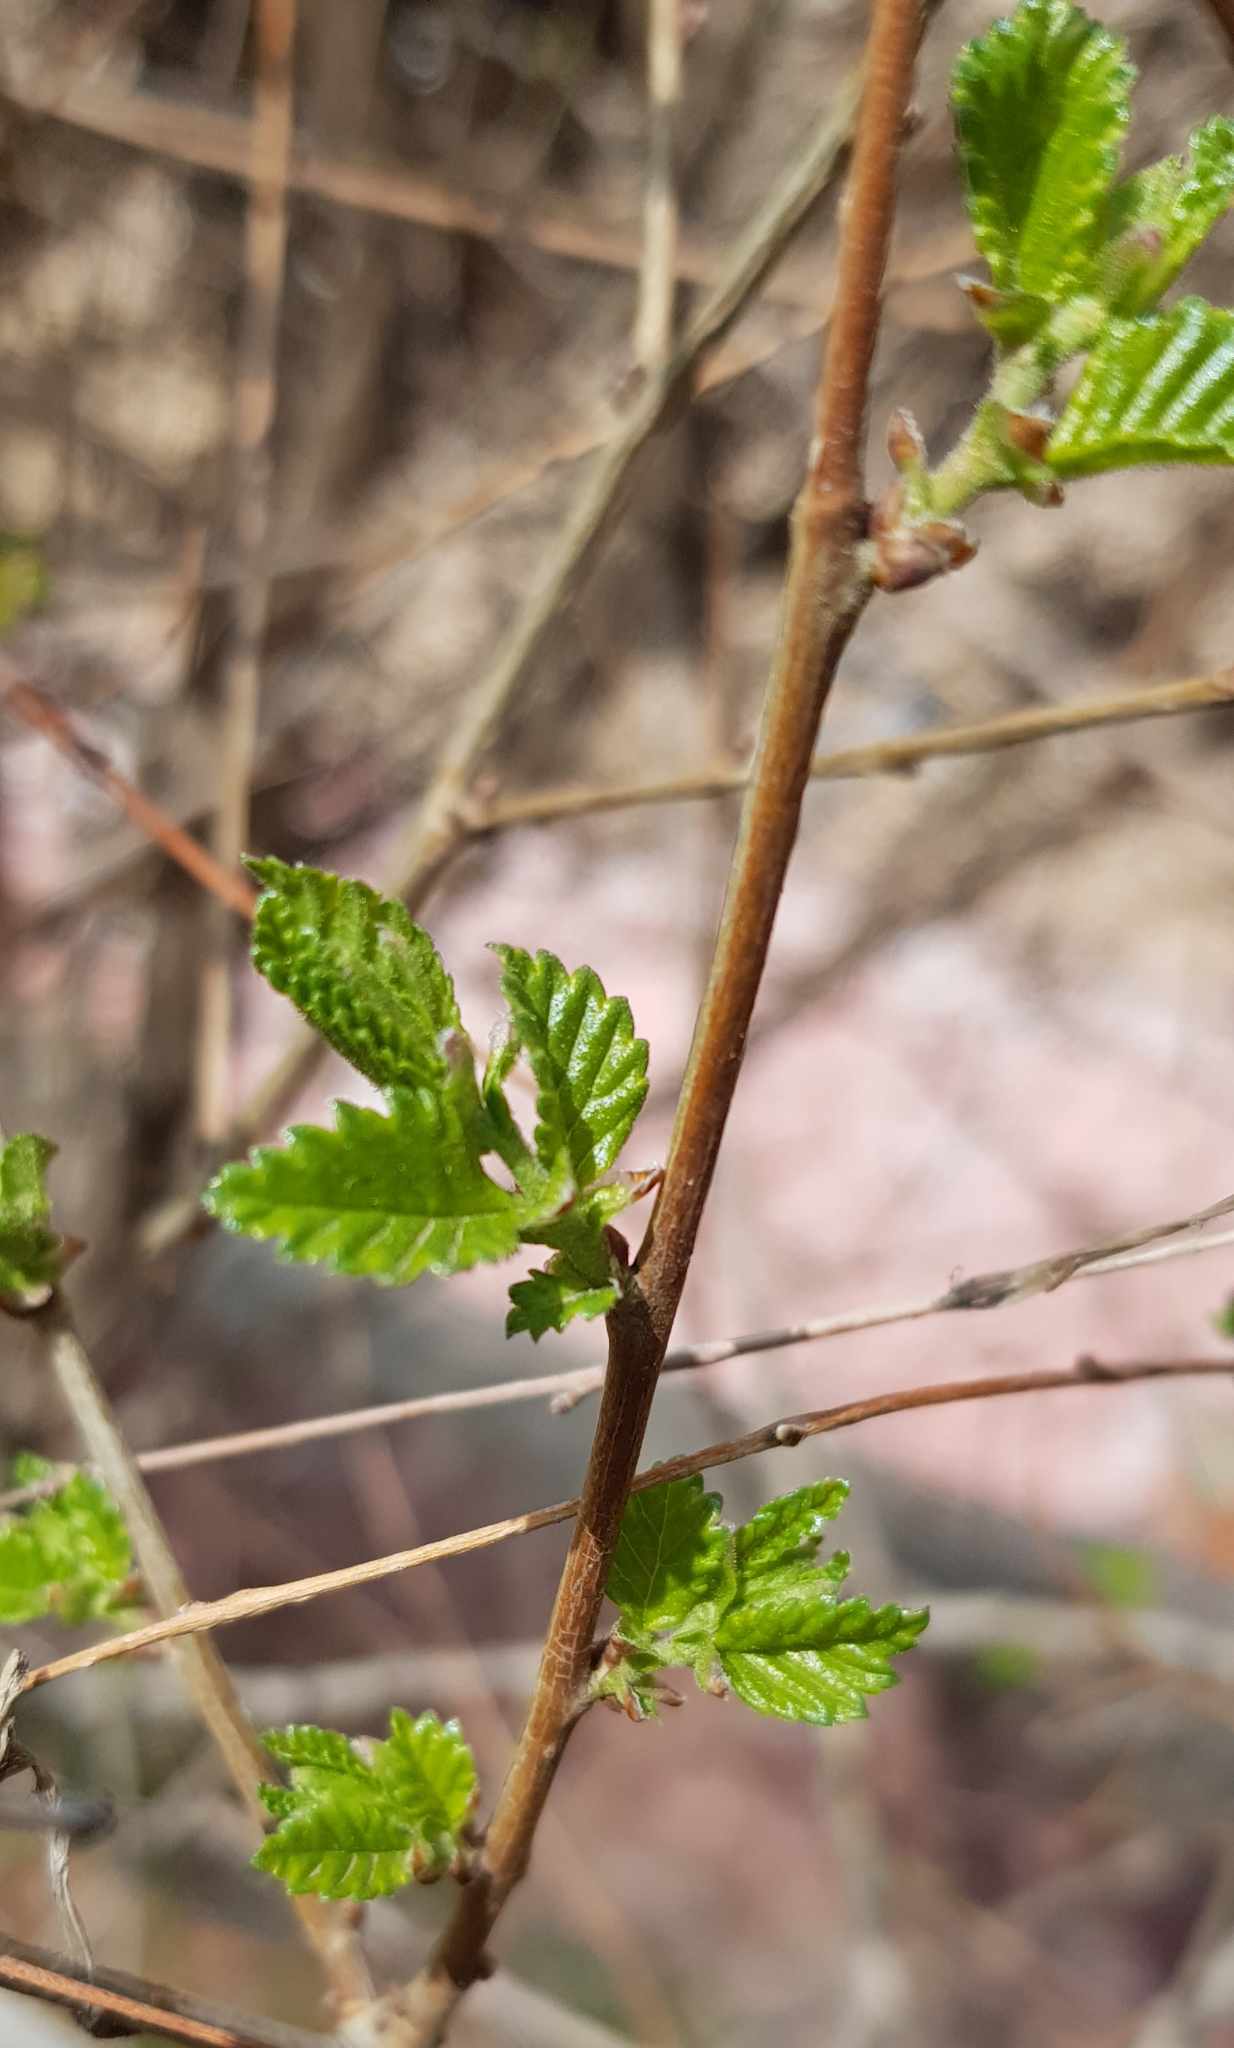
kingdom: Plantae
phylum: Tracheophyta
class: Magnoliopsida
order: Rosales
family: Ulmaceae
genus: Ulmus
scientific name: Ulmus pumila
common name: Siberian elm
